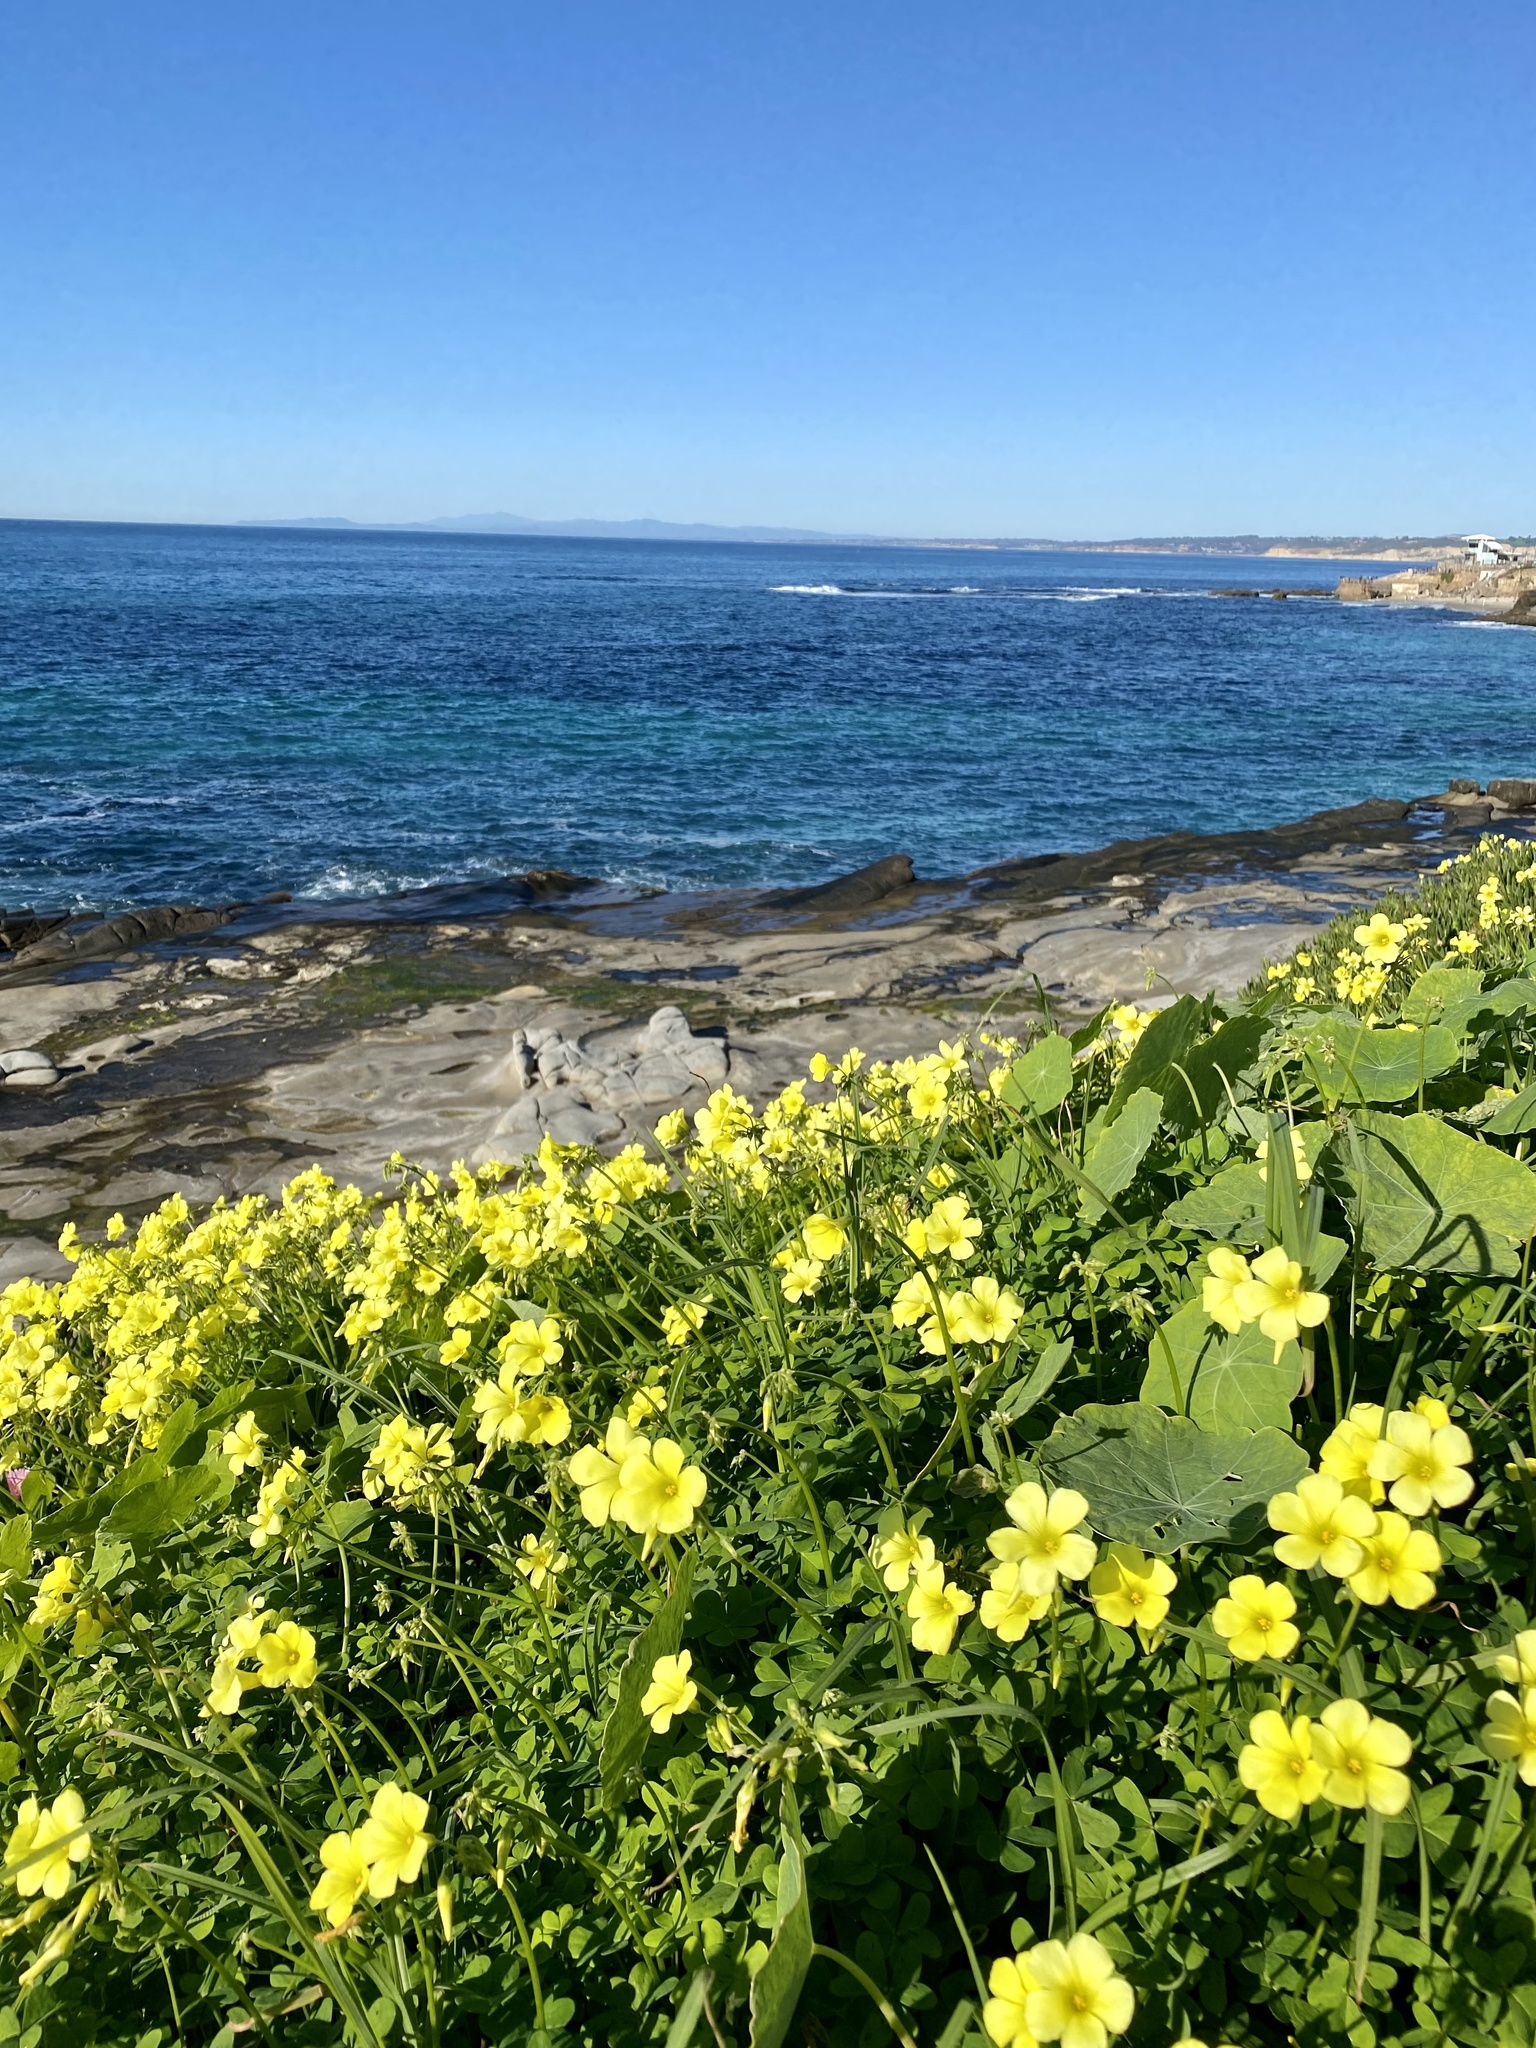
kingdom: Plantae
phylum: Tracheophyta
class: Magnoliopsida
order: Oxalidales
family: Oxalidaceae
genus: Oxalis
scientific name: Oxalis pes-caprae
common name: Bermuda-buttercup
